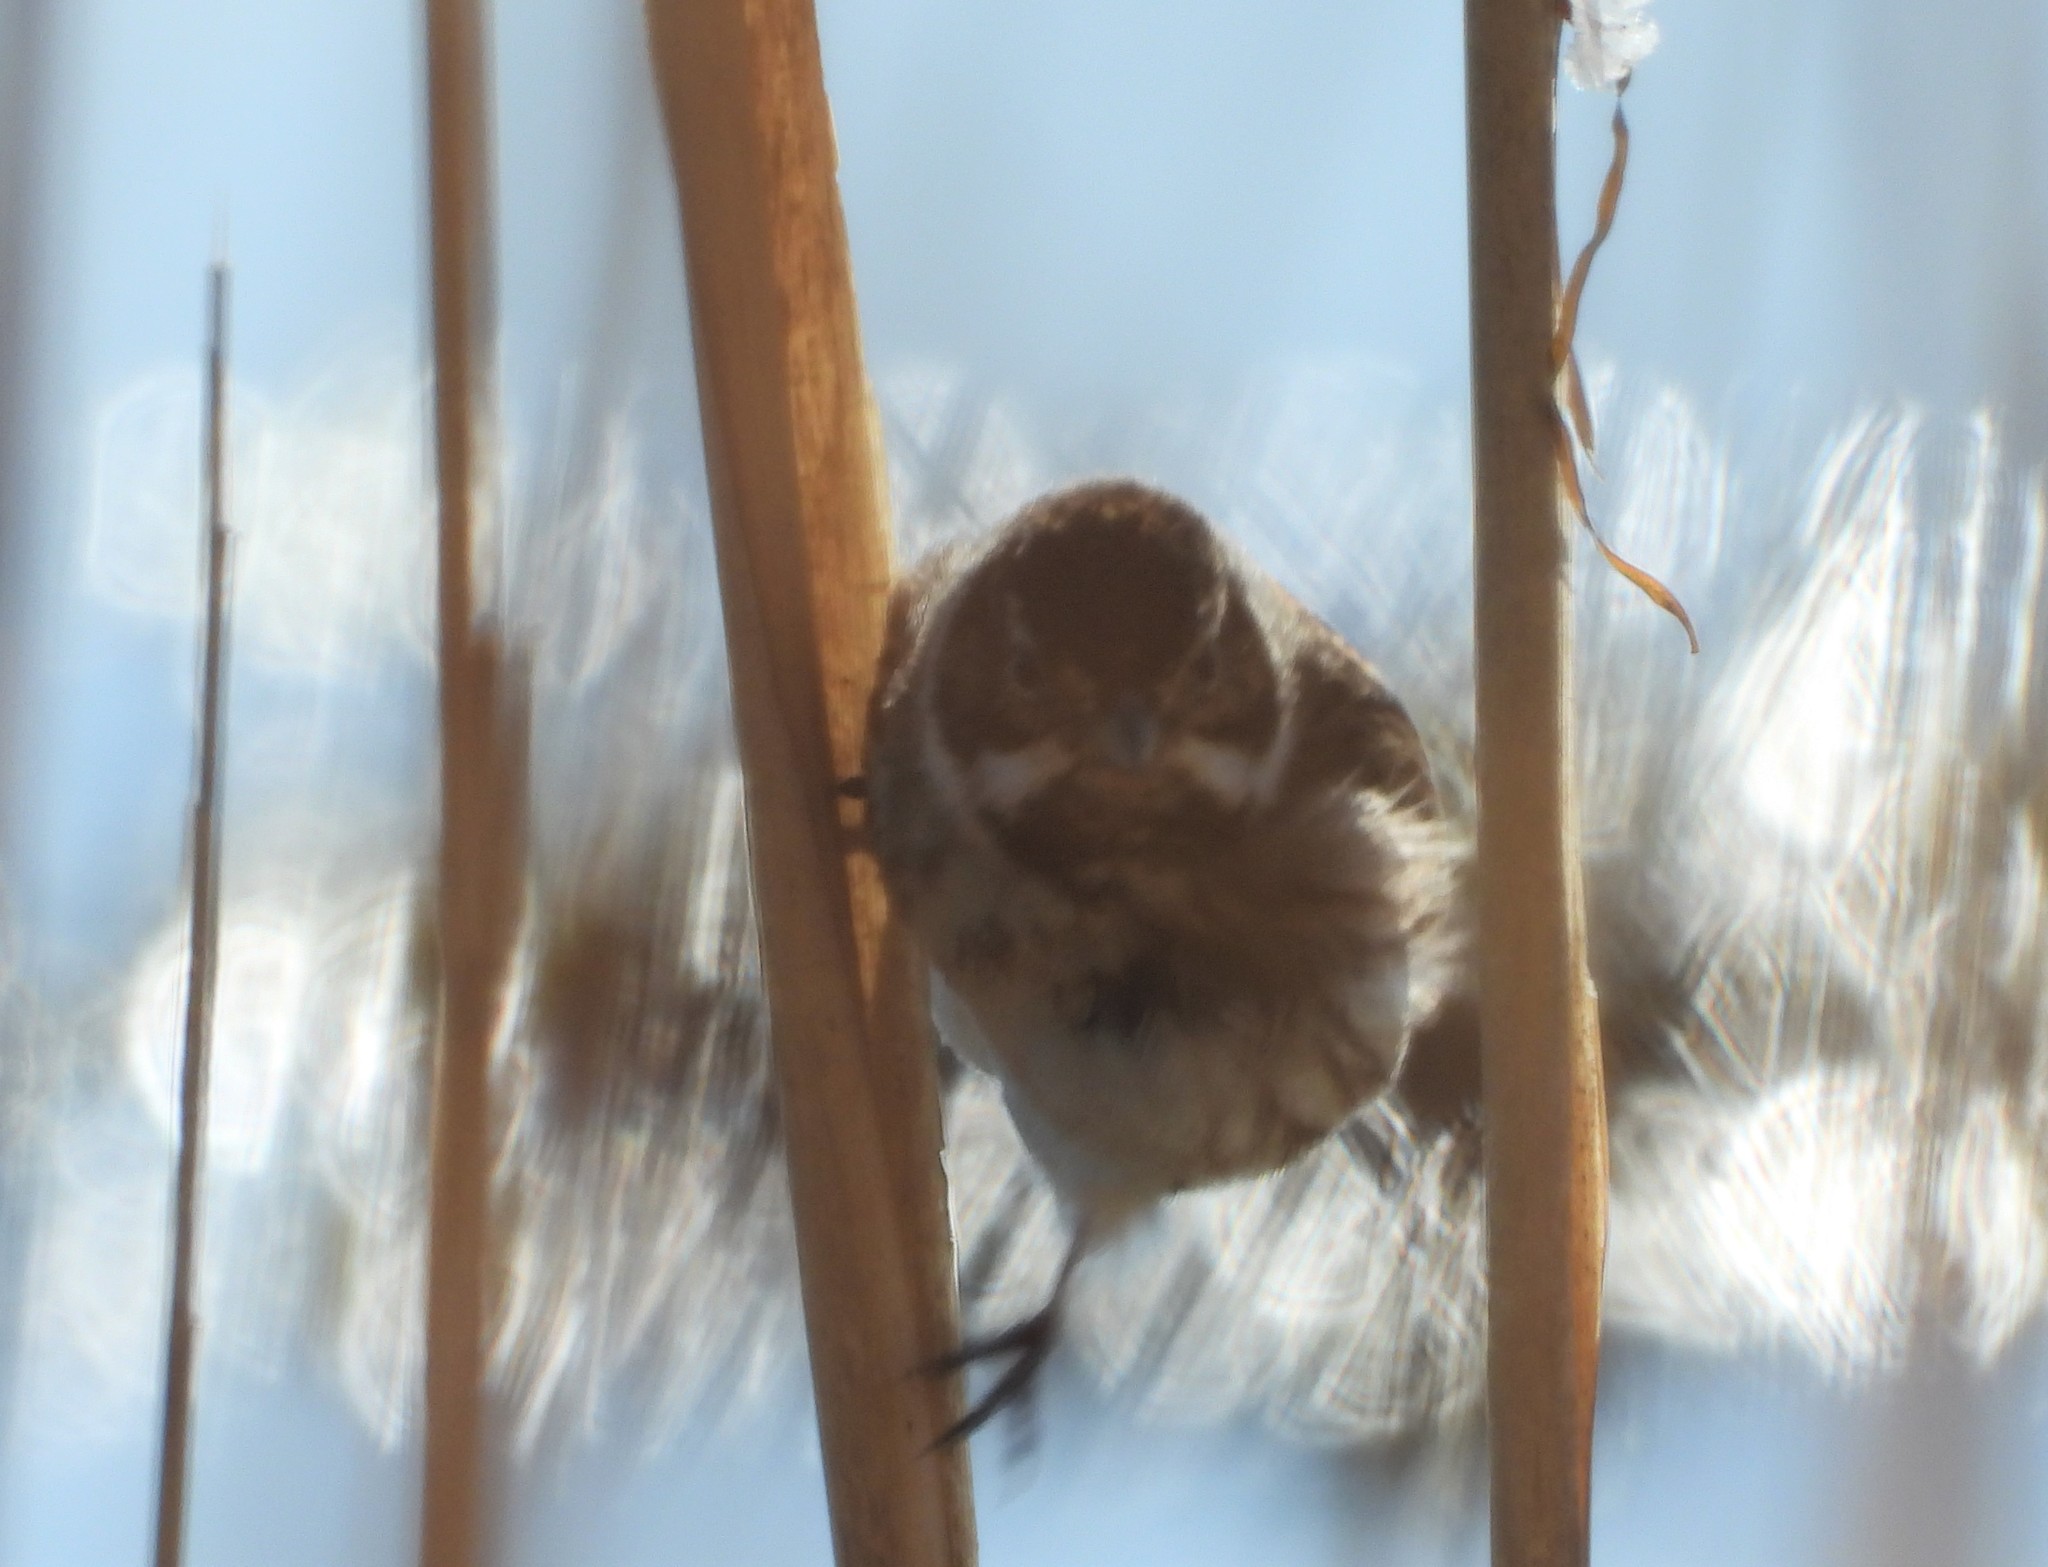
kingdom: Animalia
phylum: Chordata
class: Aves
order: Passeriformes
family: Emberizidae
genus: Emberiza
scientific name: Emberiza schoeniclus
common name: Reed bunting
